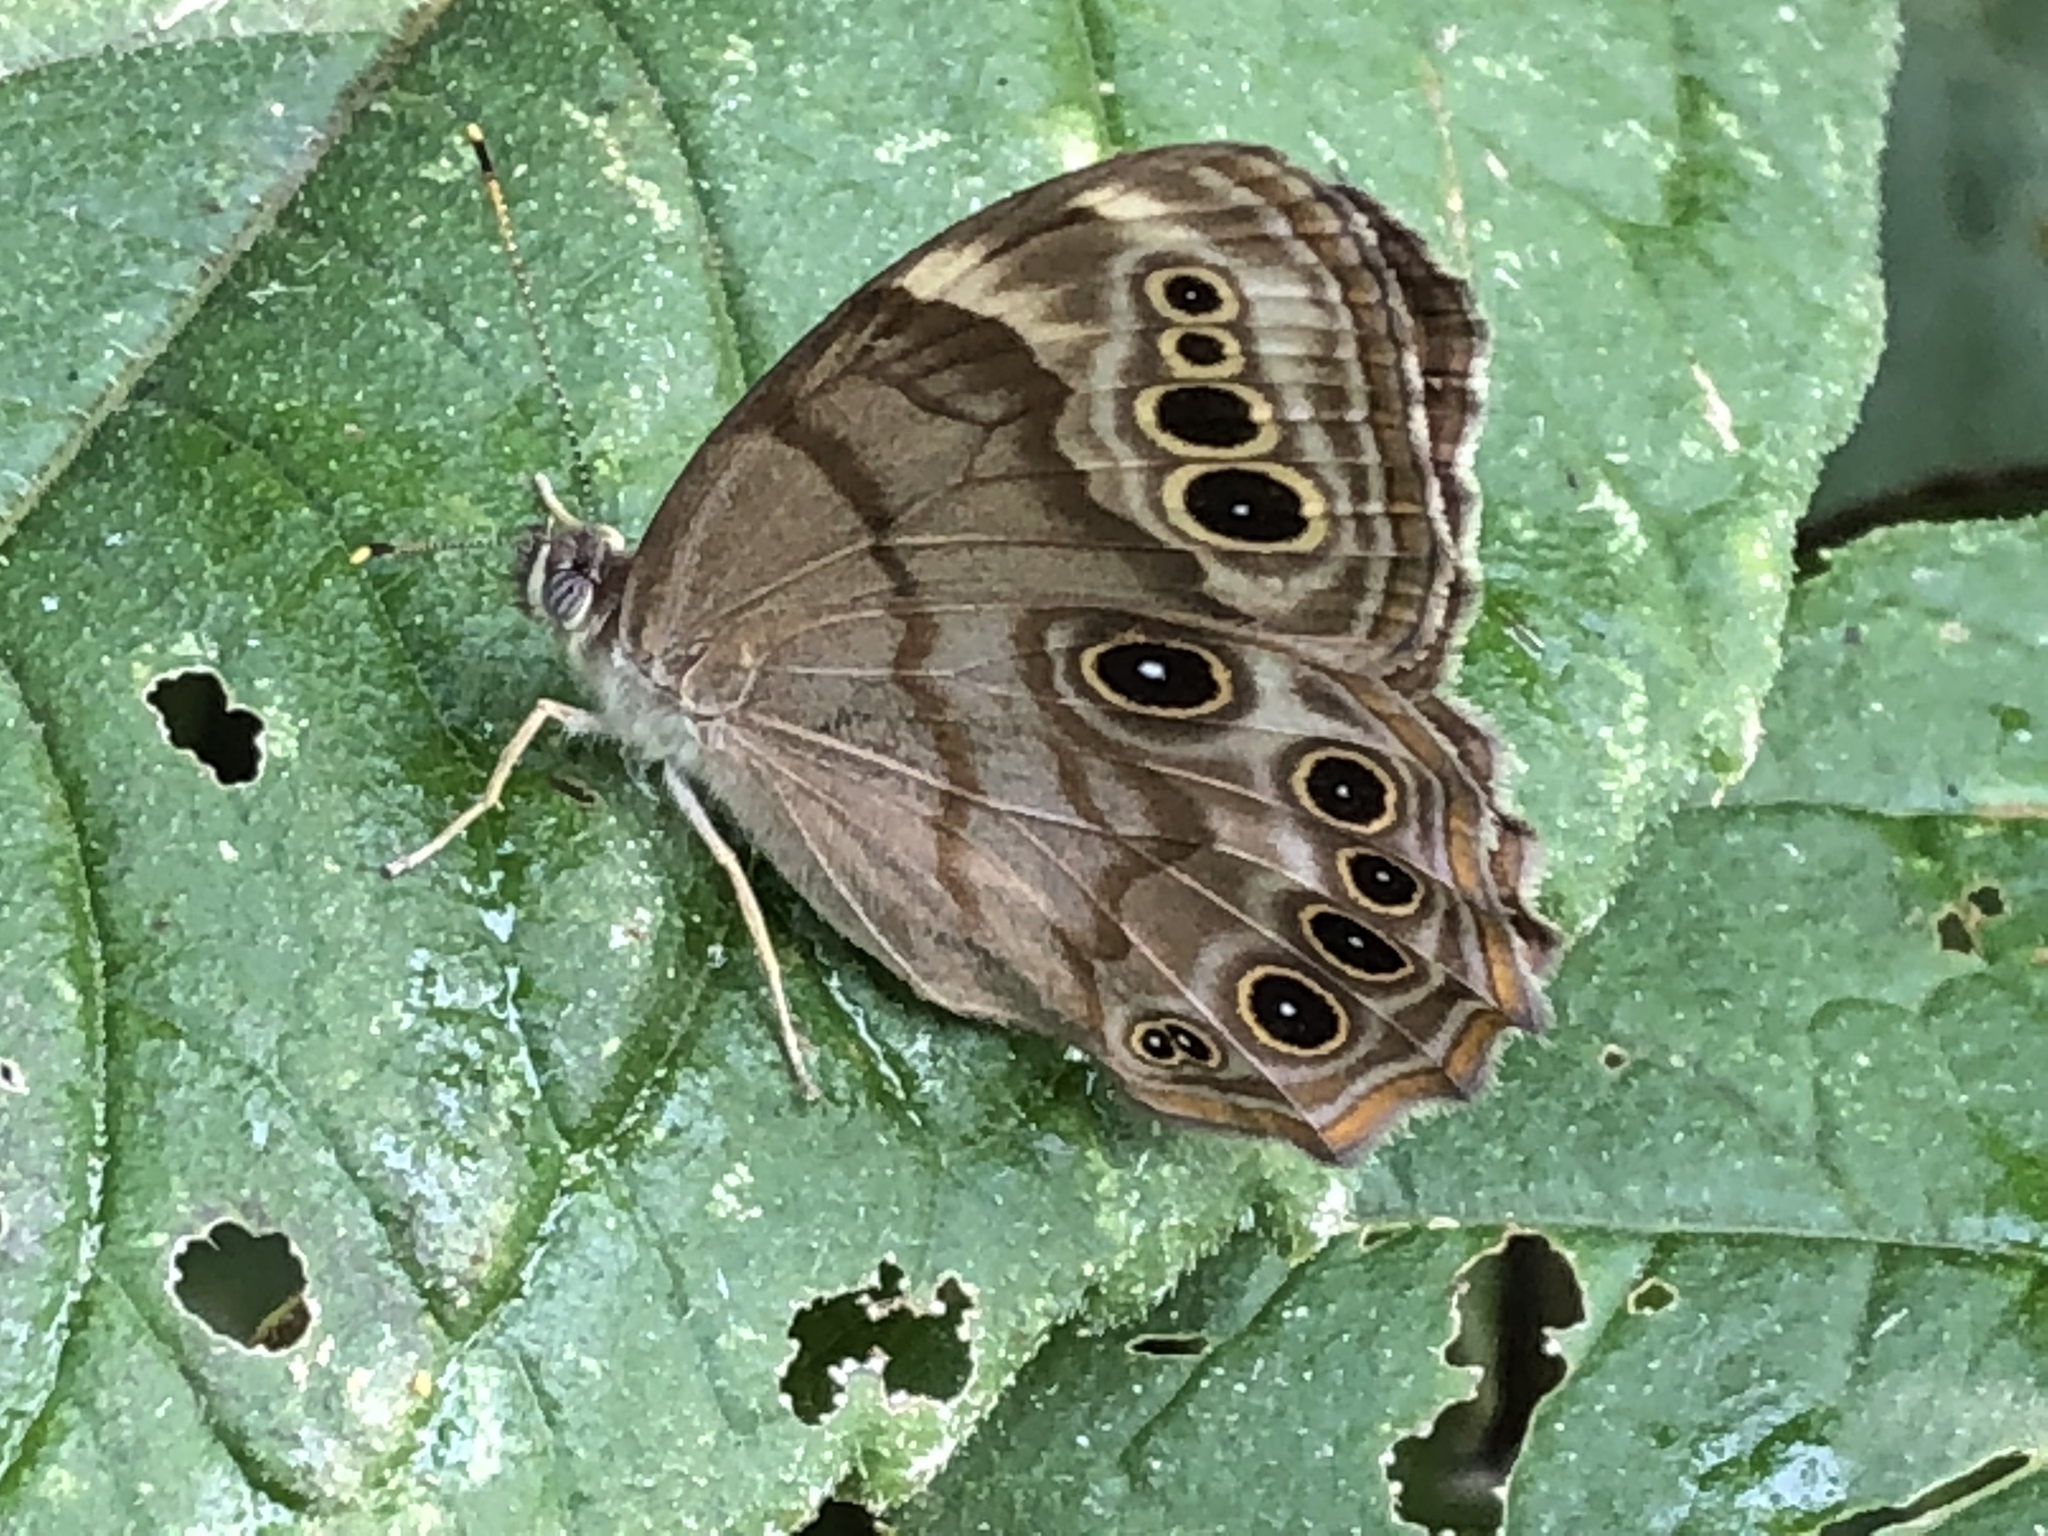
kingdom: Animalia
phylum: Arthropoda
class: Insecta
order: Lepidoptera
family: Nymphalidae
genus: Lethe
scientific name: Lethe anthedon
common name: Northern pearly-eye
